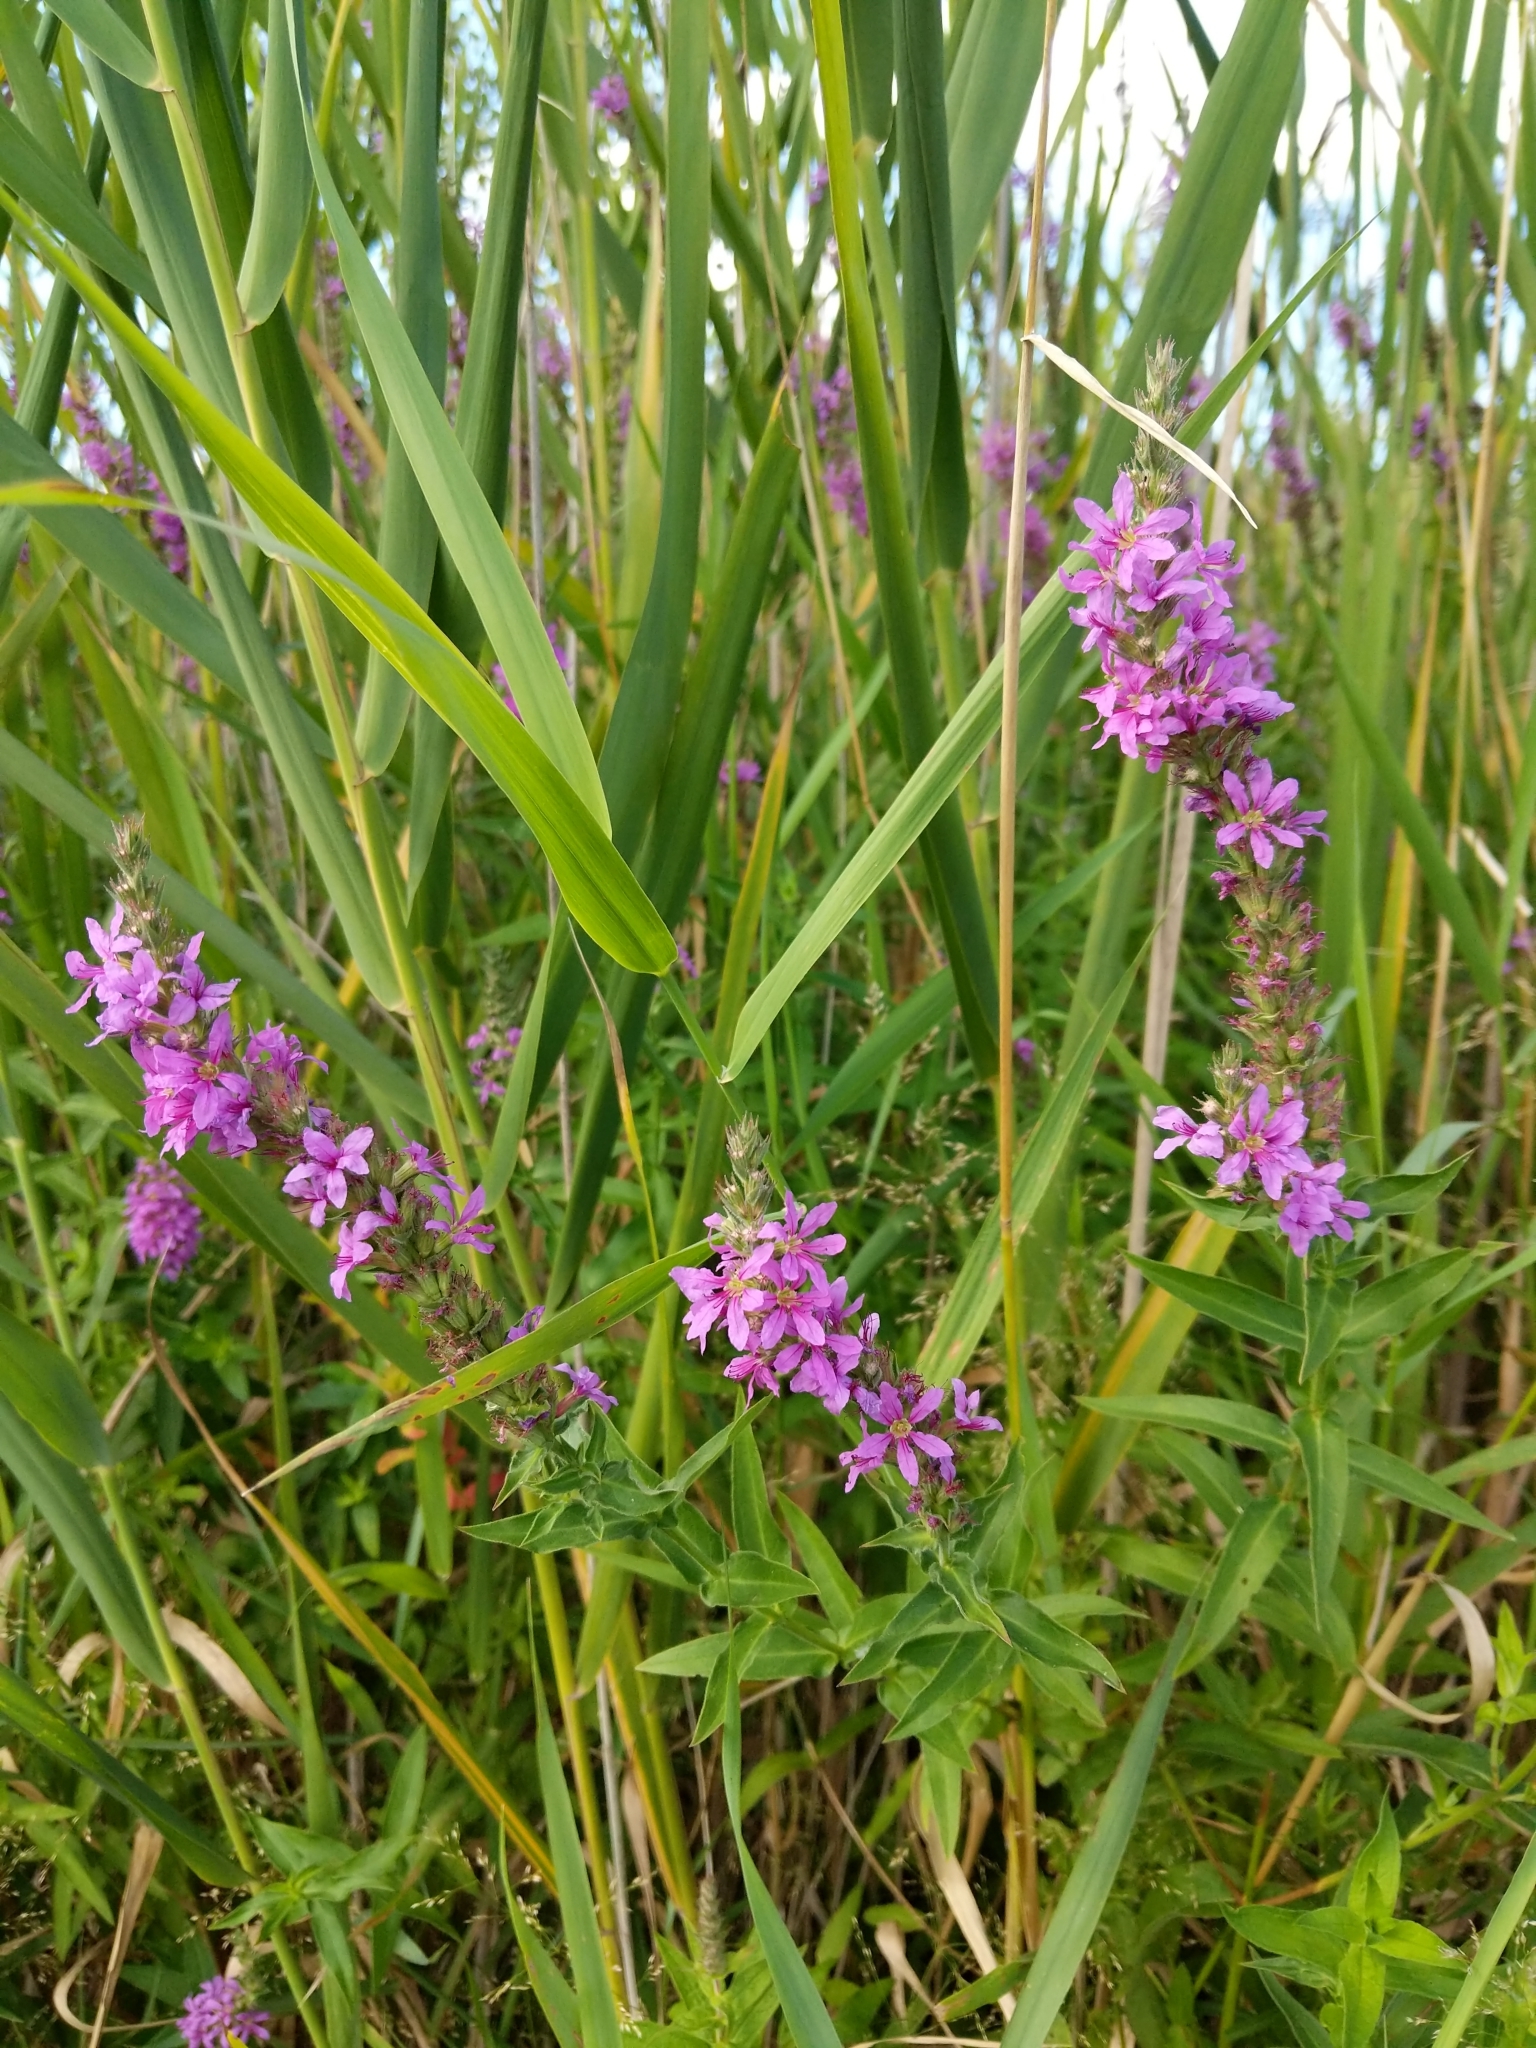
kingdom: Plantae
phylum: Tracheophyta
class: Magnoliopsida
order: Myrtales
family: Lythraceae
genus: Lythrum
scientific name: Lythrum salicaria
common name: Purple loosestrife
